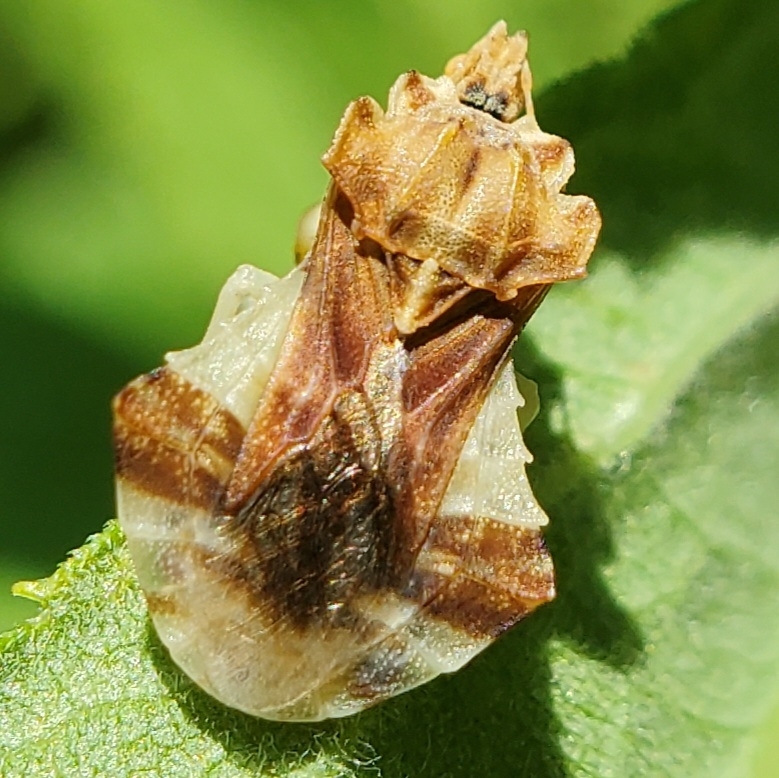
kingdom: Animalia
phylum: Arthropoda
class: Insecta
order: Hemiptera
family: Reduviidae
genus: Phymata
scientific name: Phymata fasciata
